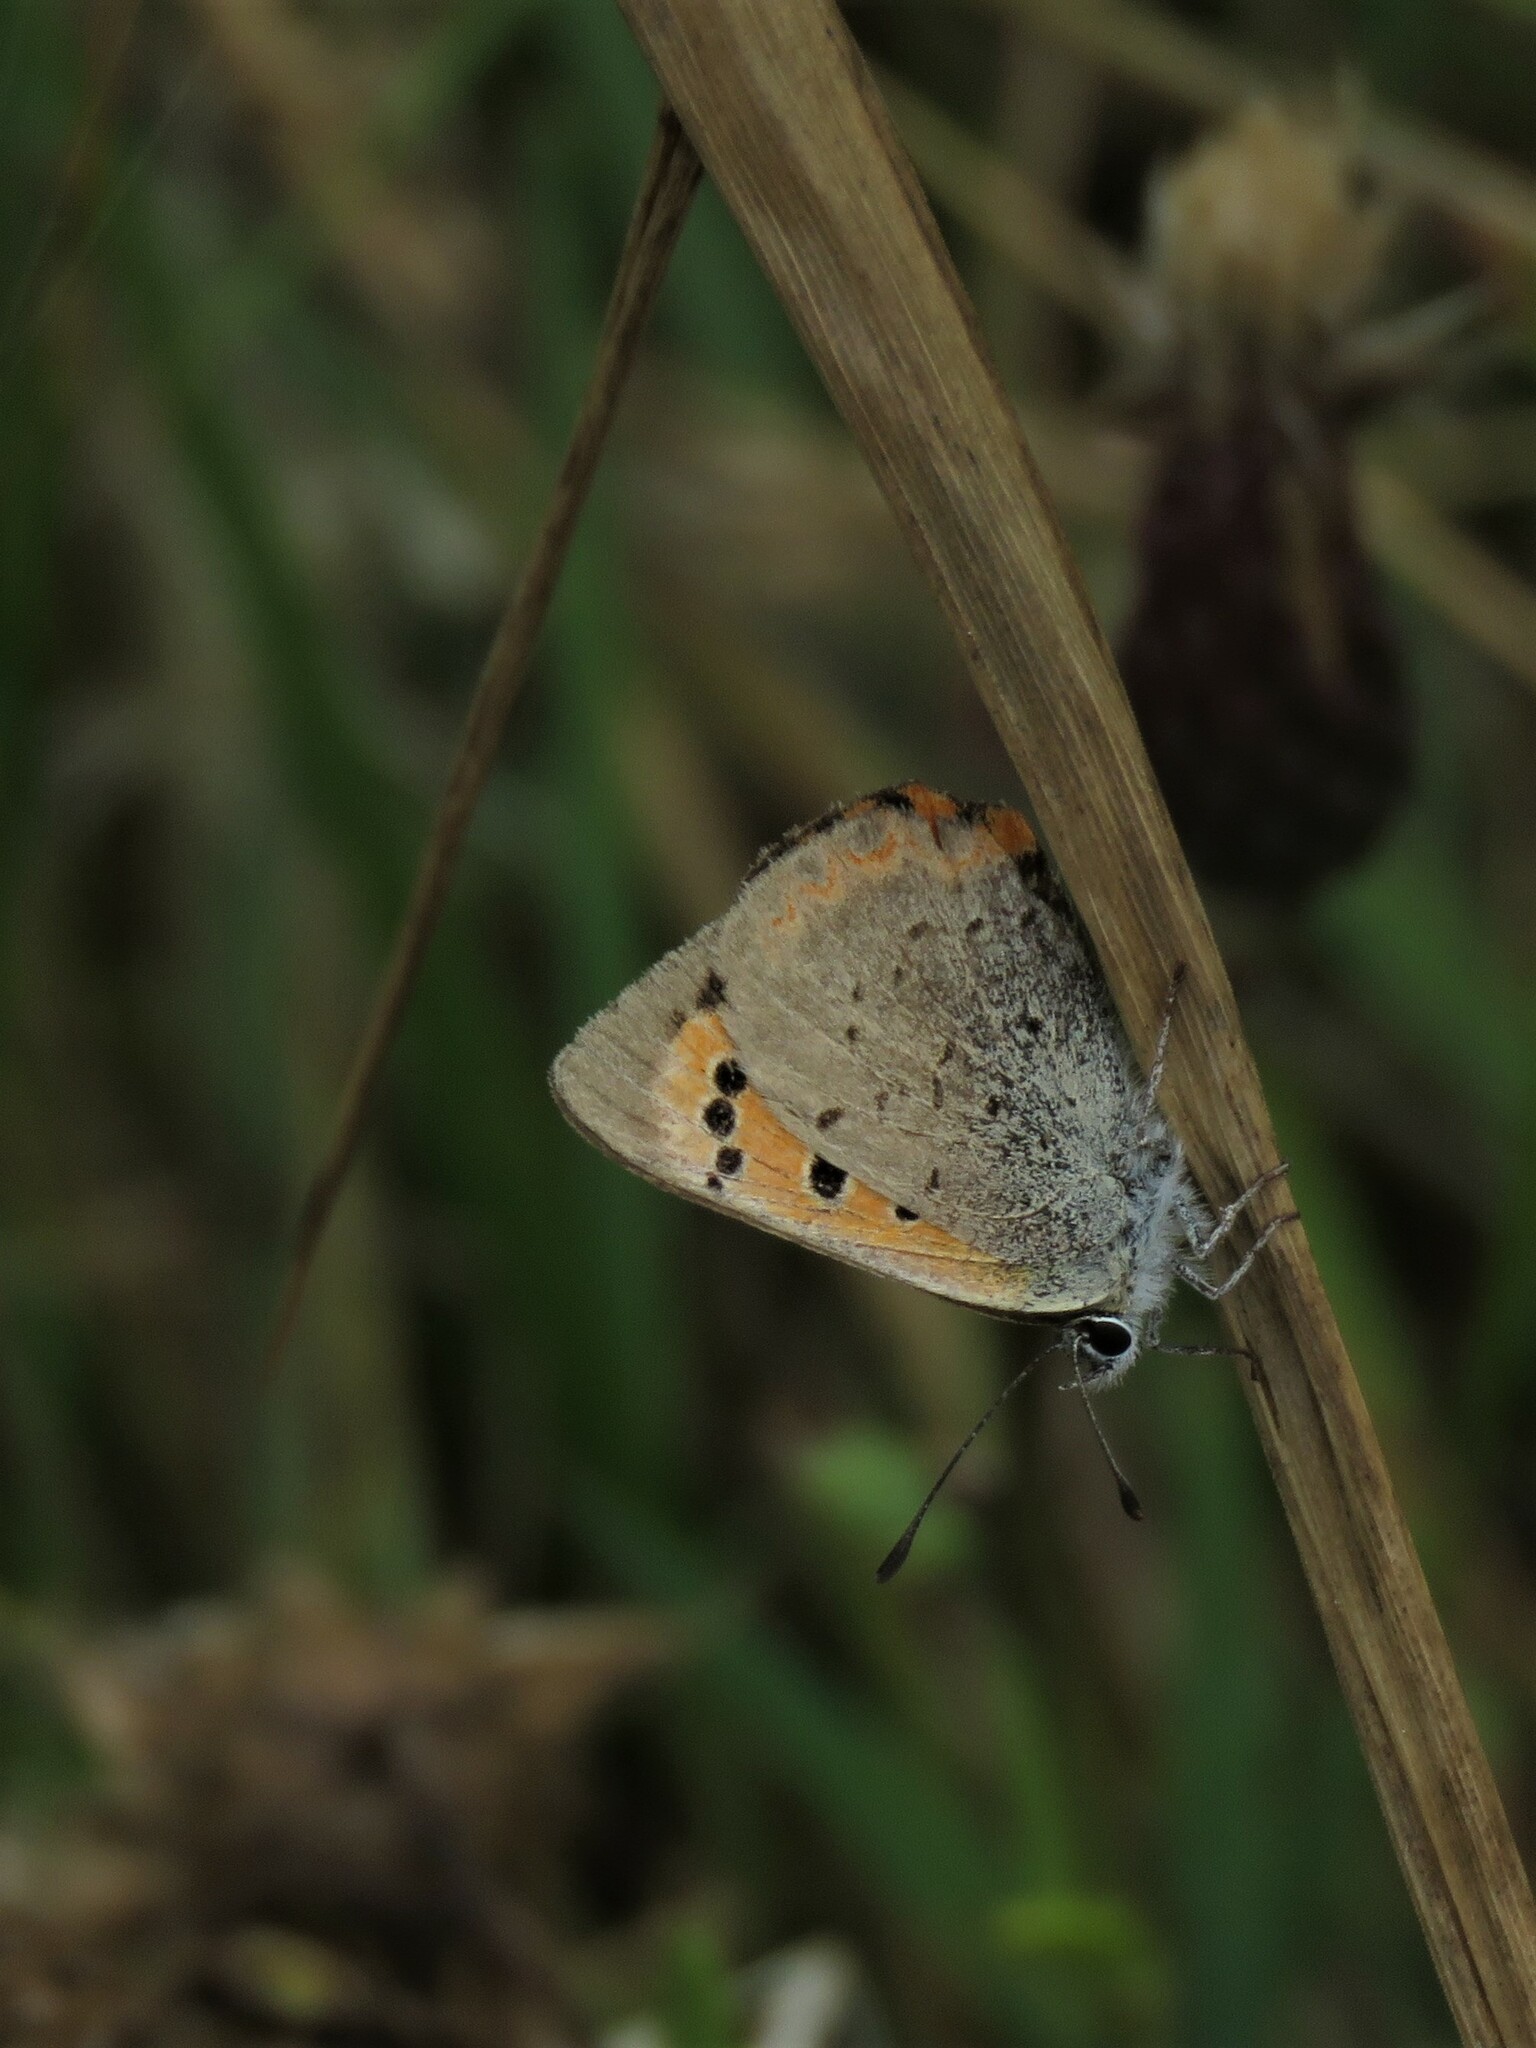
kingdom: Animalia
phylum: Arthropoda
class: Insecta
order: Lepidoptera
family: Lycaenidae
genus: Lycaena
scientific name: Lycaena phlaeas
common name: Small copper
